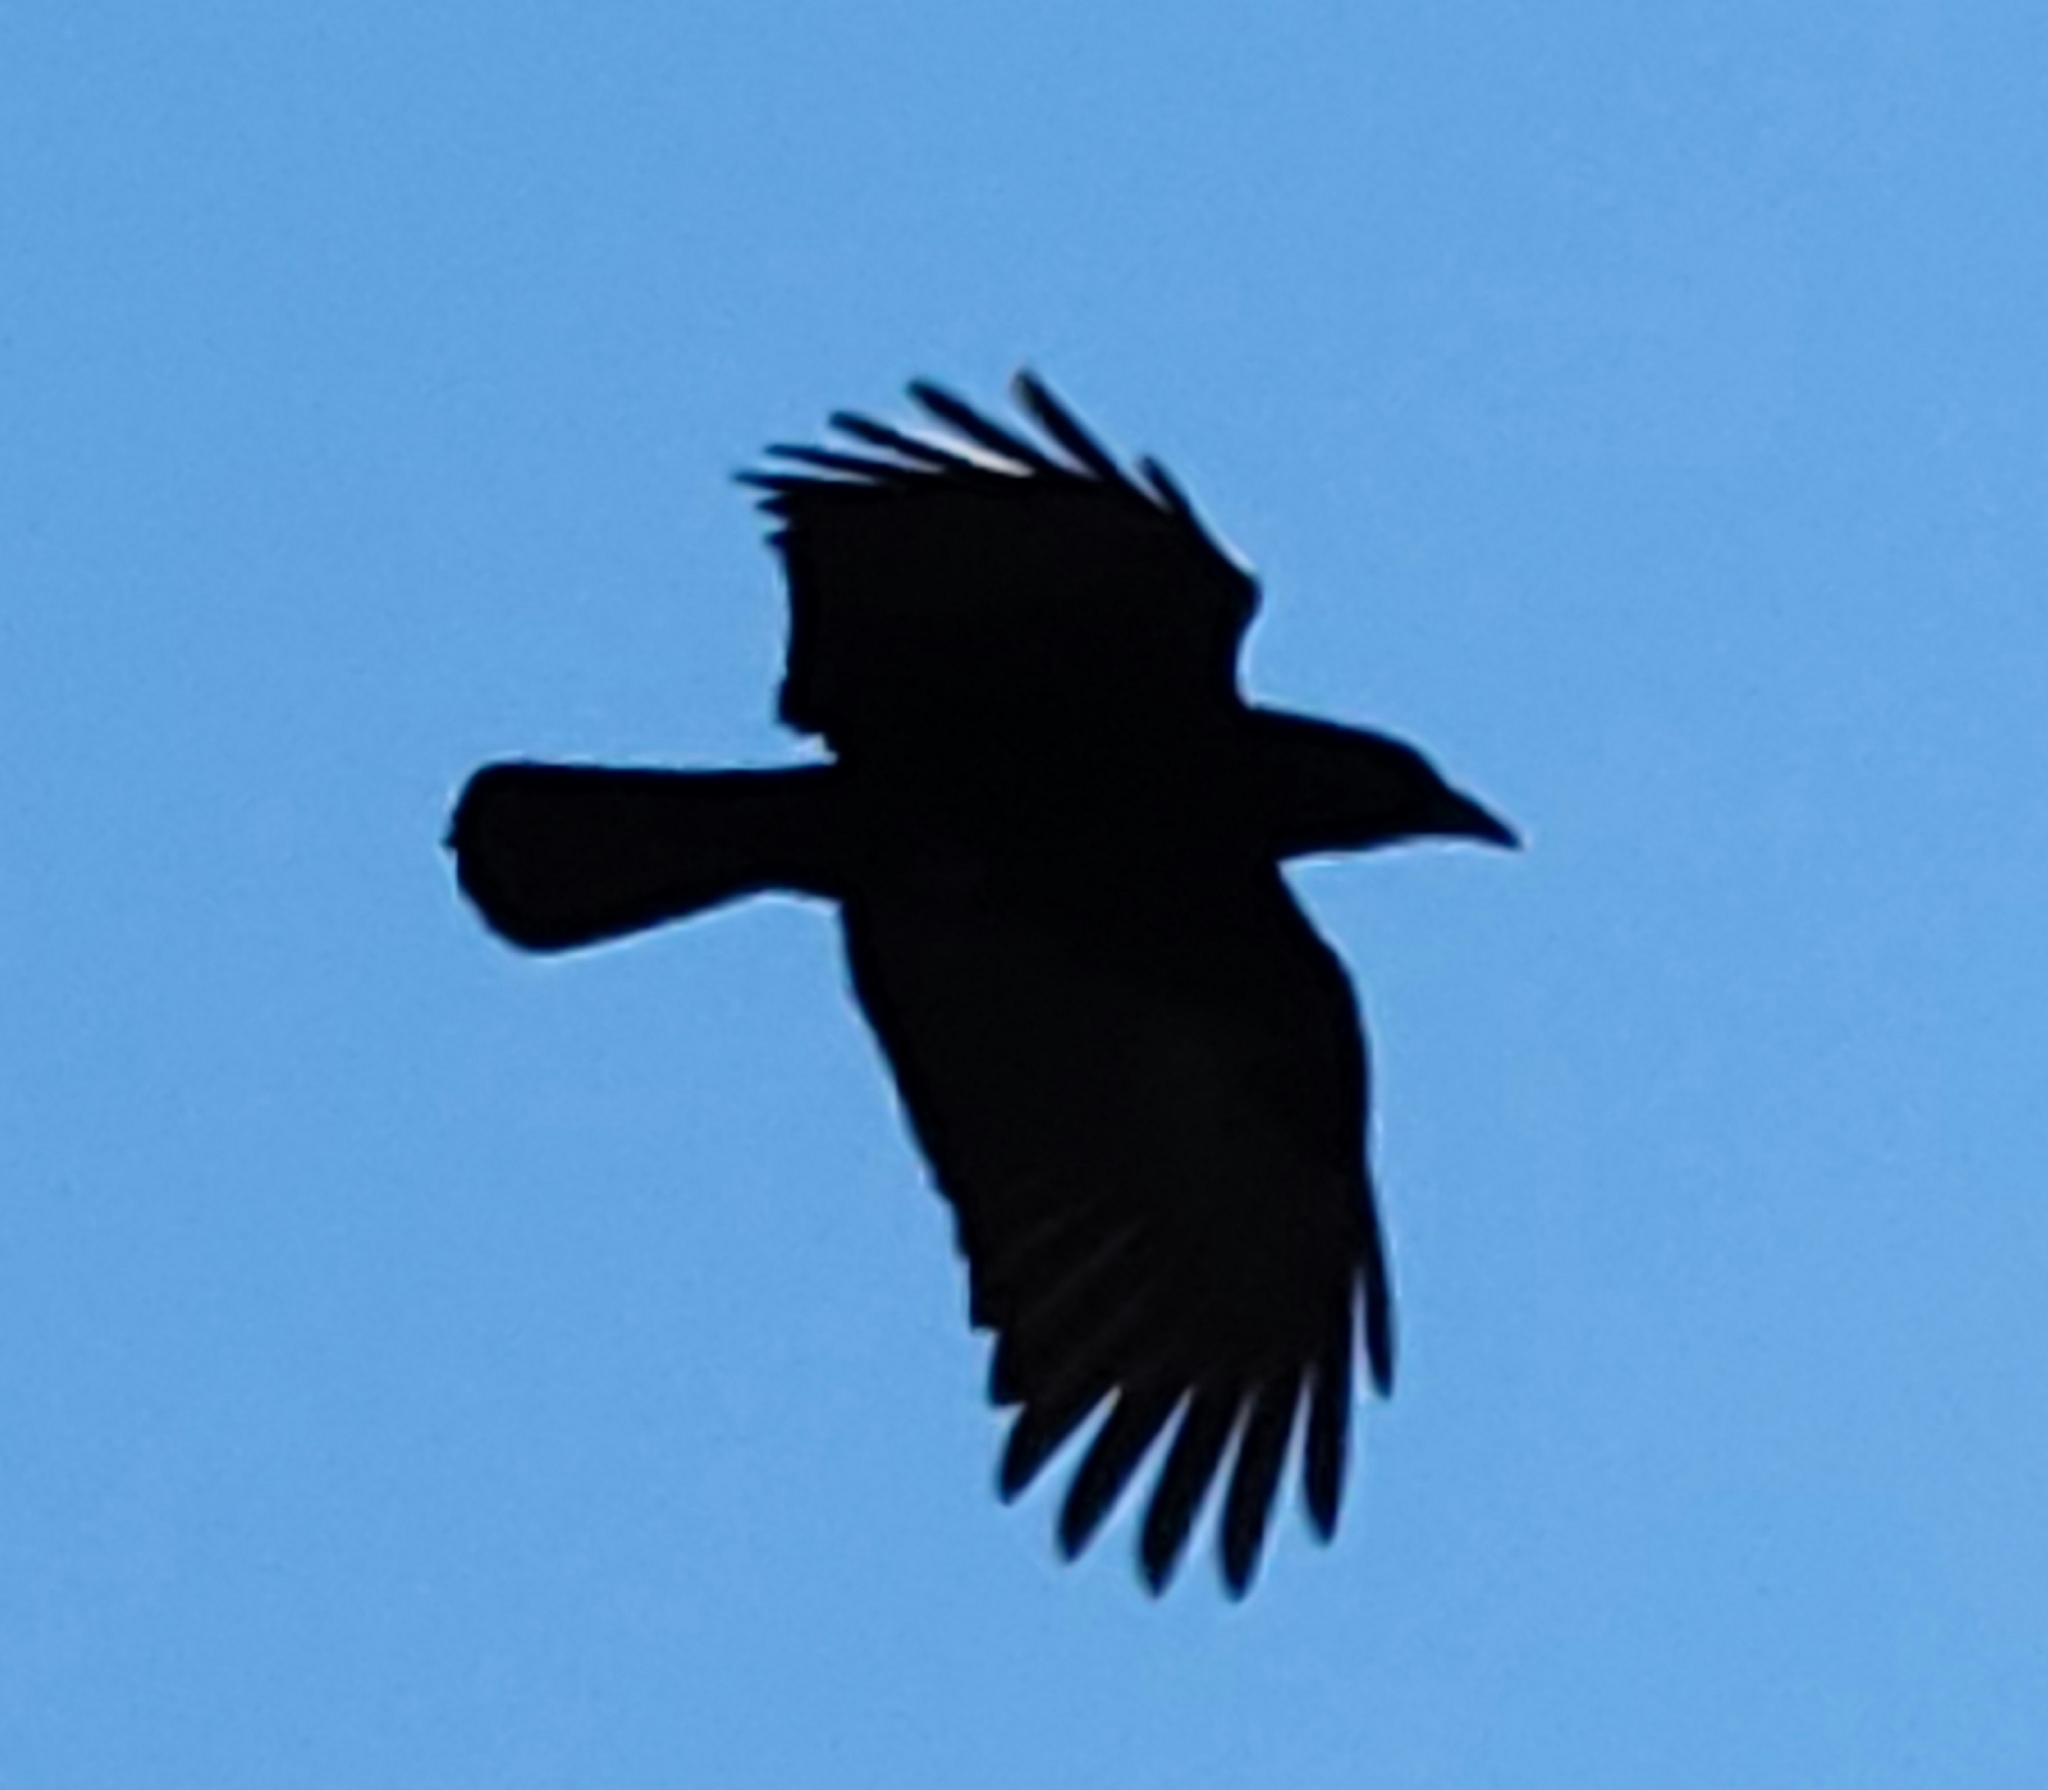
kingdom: Animalia
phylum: Chordata
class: Aves
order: Passeriformes
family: Corvidae
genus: Corvus
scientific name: Corvus brachyrhynchos
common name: American crow
